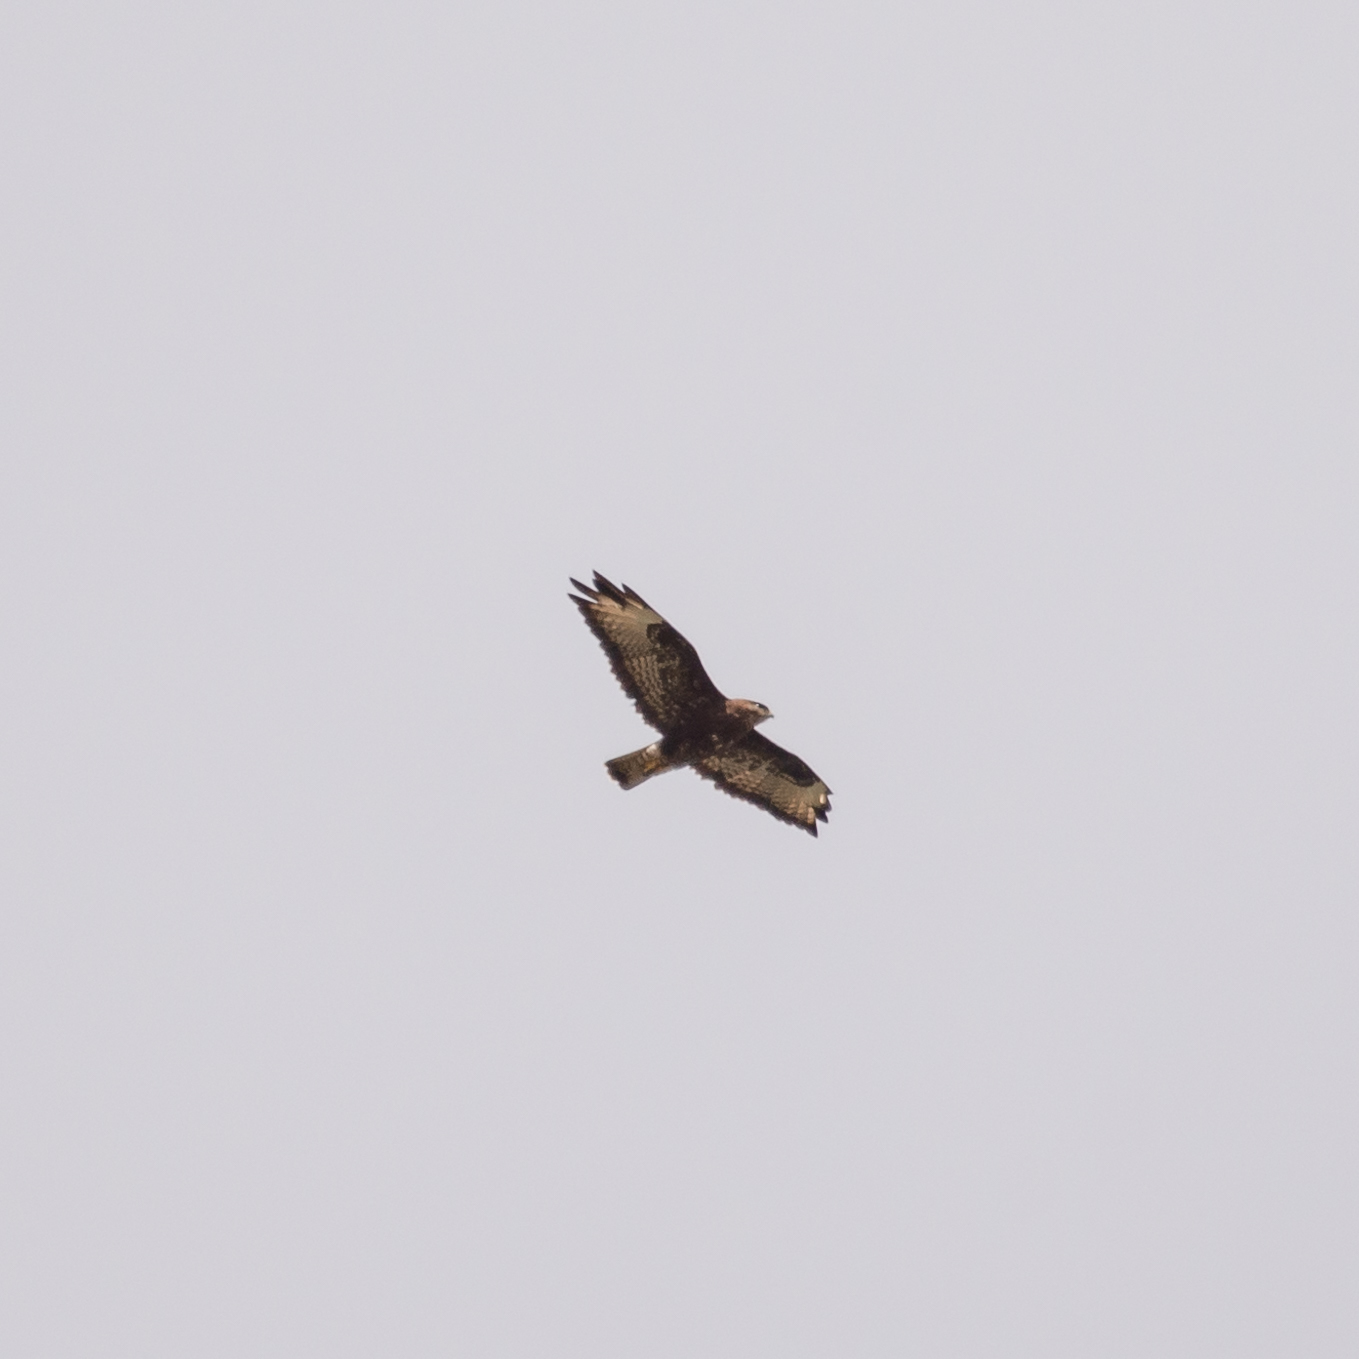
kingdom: Animalia
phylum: Chordata
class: Aves
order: Accipitriformes
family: Accipitridae
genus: Buteo
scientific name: Buteo buteo
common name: Common buzzard
